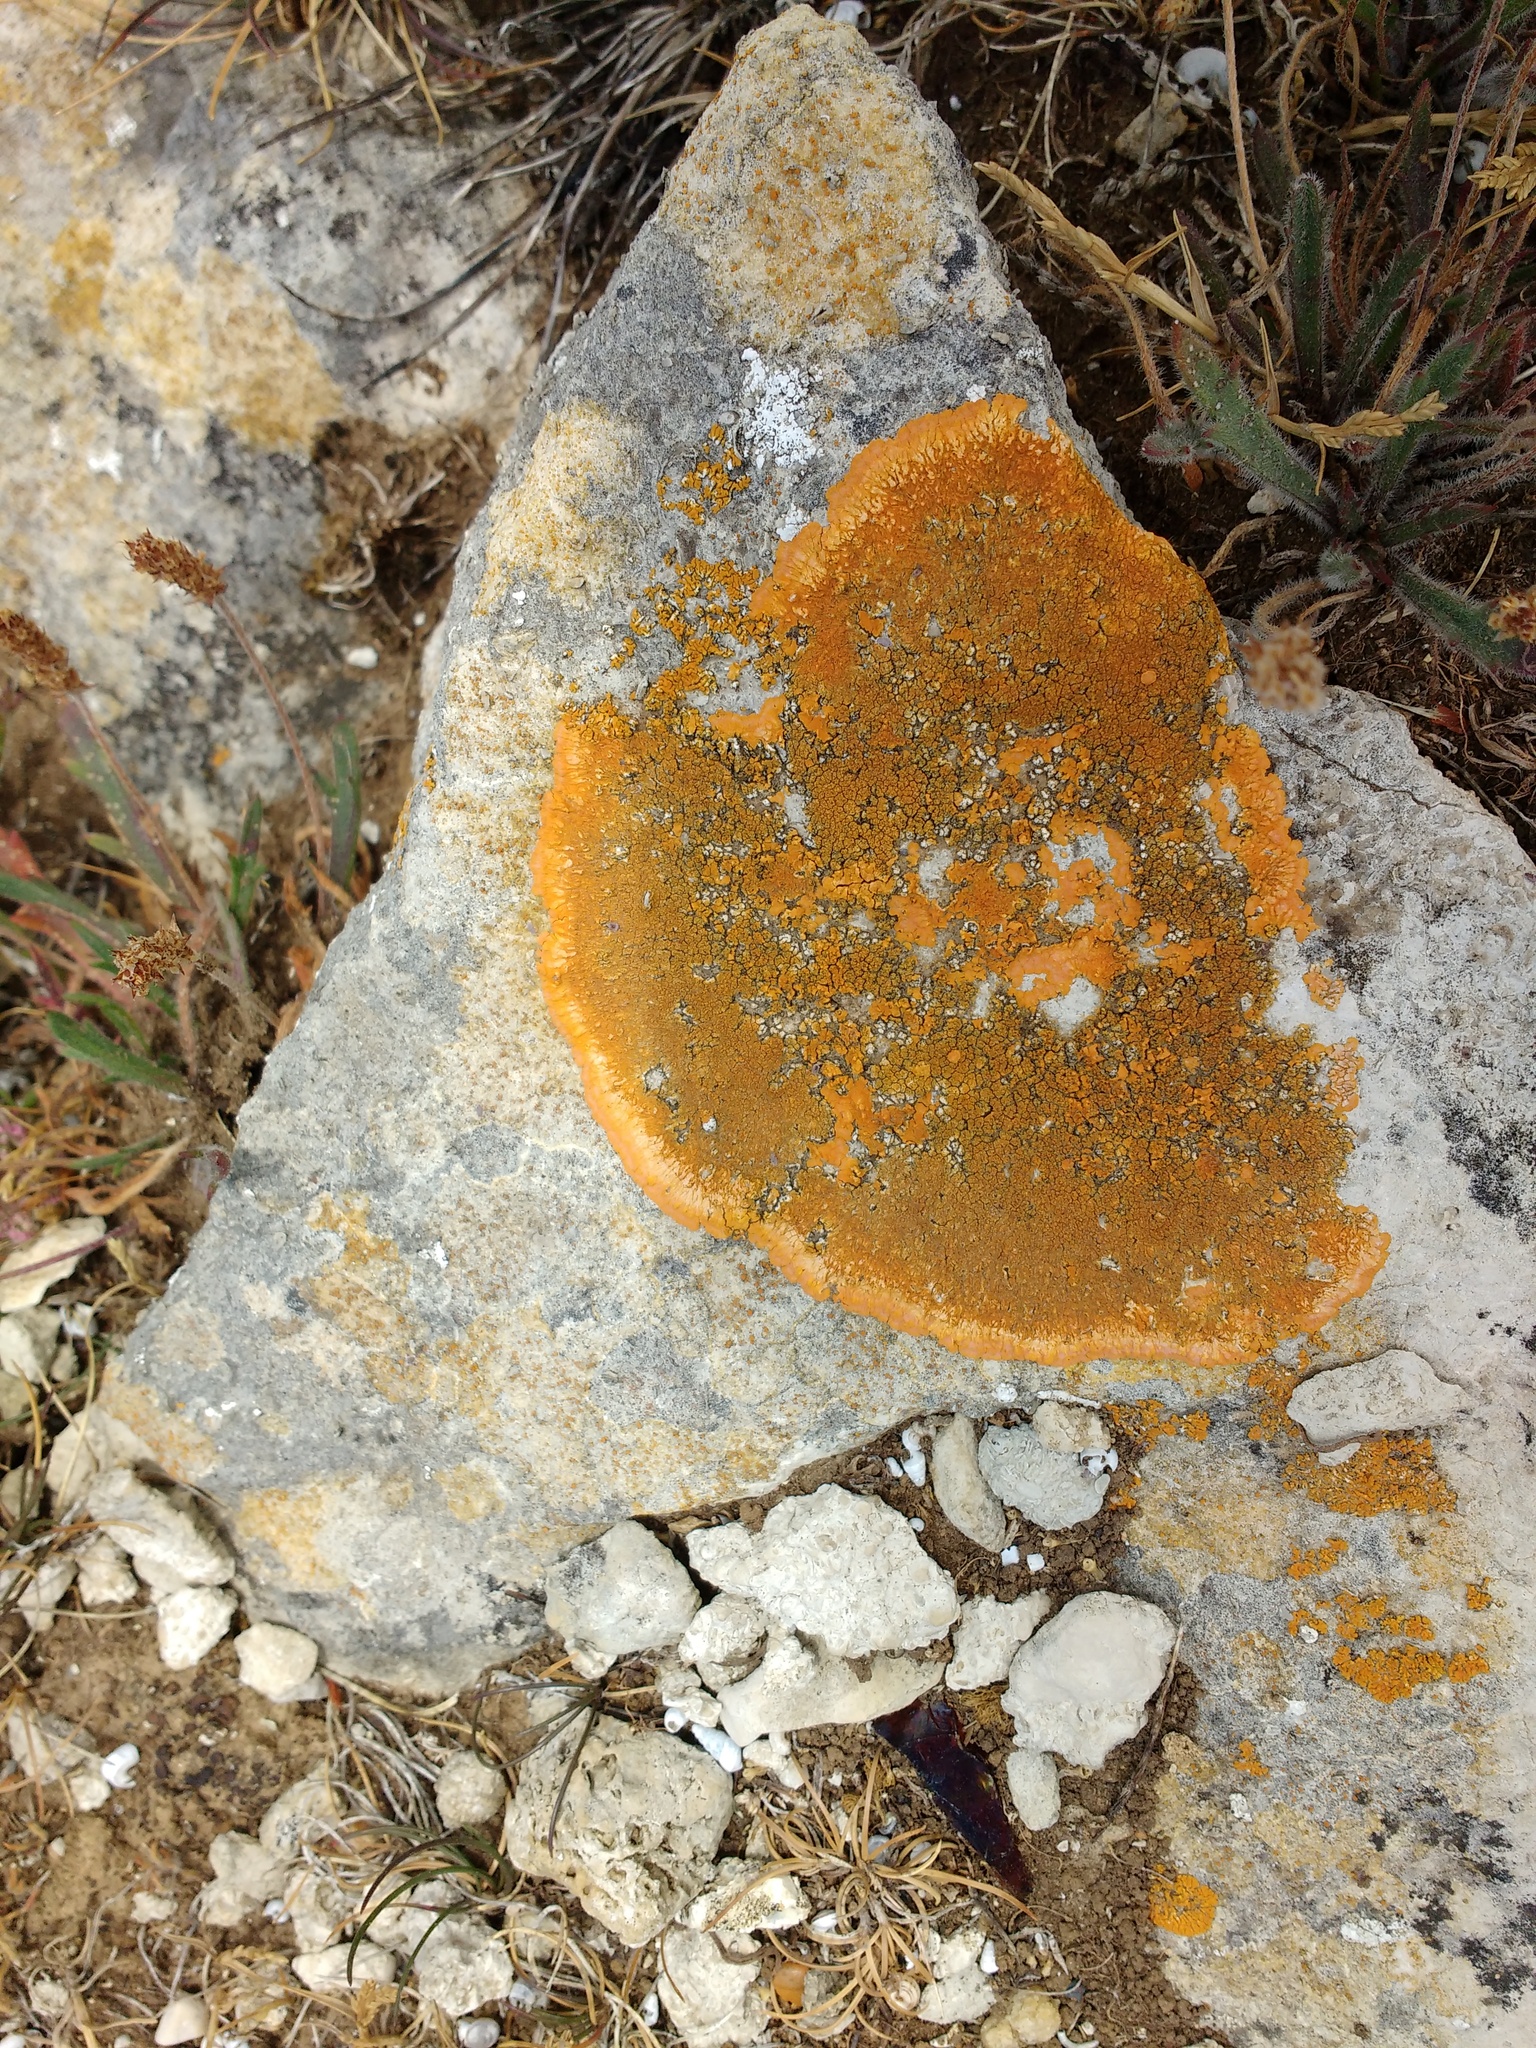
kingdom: Fungi
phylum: Ascomycota
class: Lecanoromycetes
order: Teloschistales
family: Teloschistaceae
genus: Variospora
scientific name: Variospora aurantia
